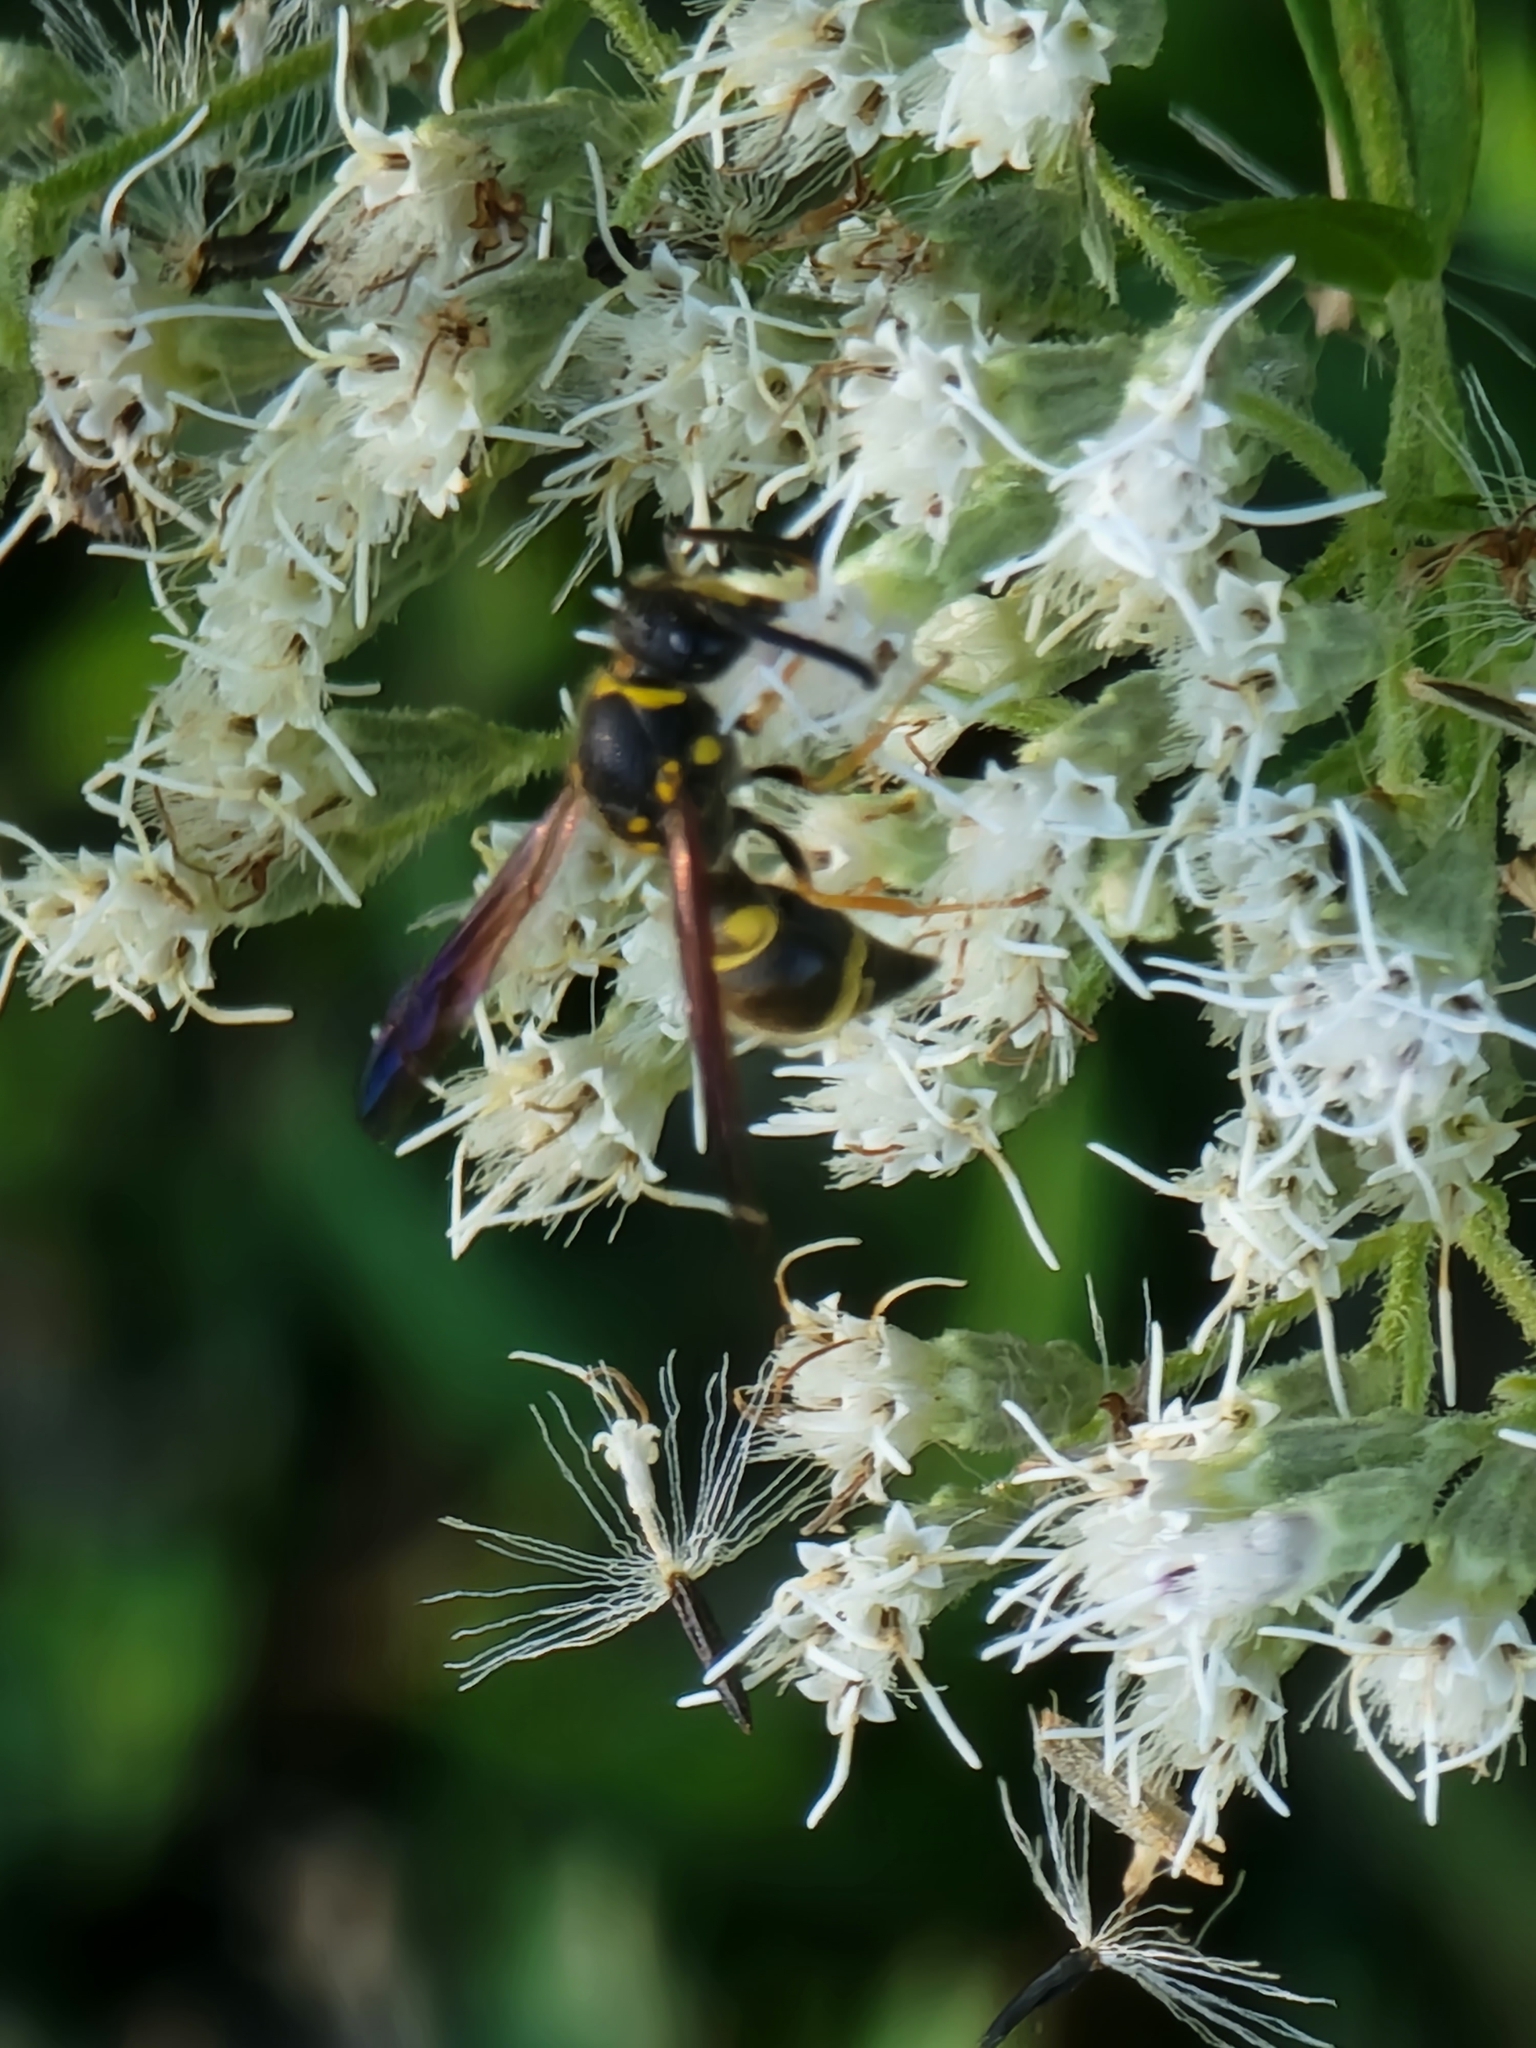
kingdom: Animalia
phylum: Arthropoda
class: Insecta
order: Hymenoptera
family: Vespidae
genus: Ancistrocerus
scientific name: Ancistrocerus campestris
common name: Smiling mason wasp
